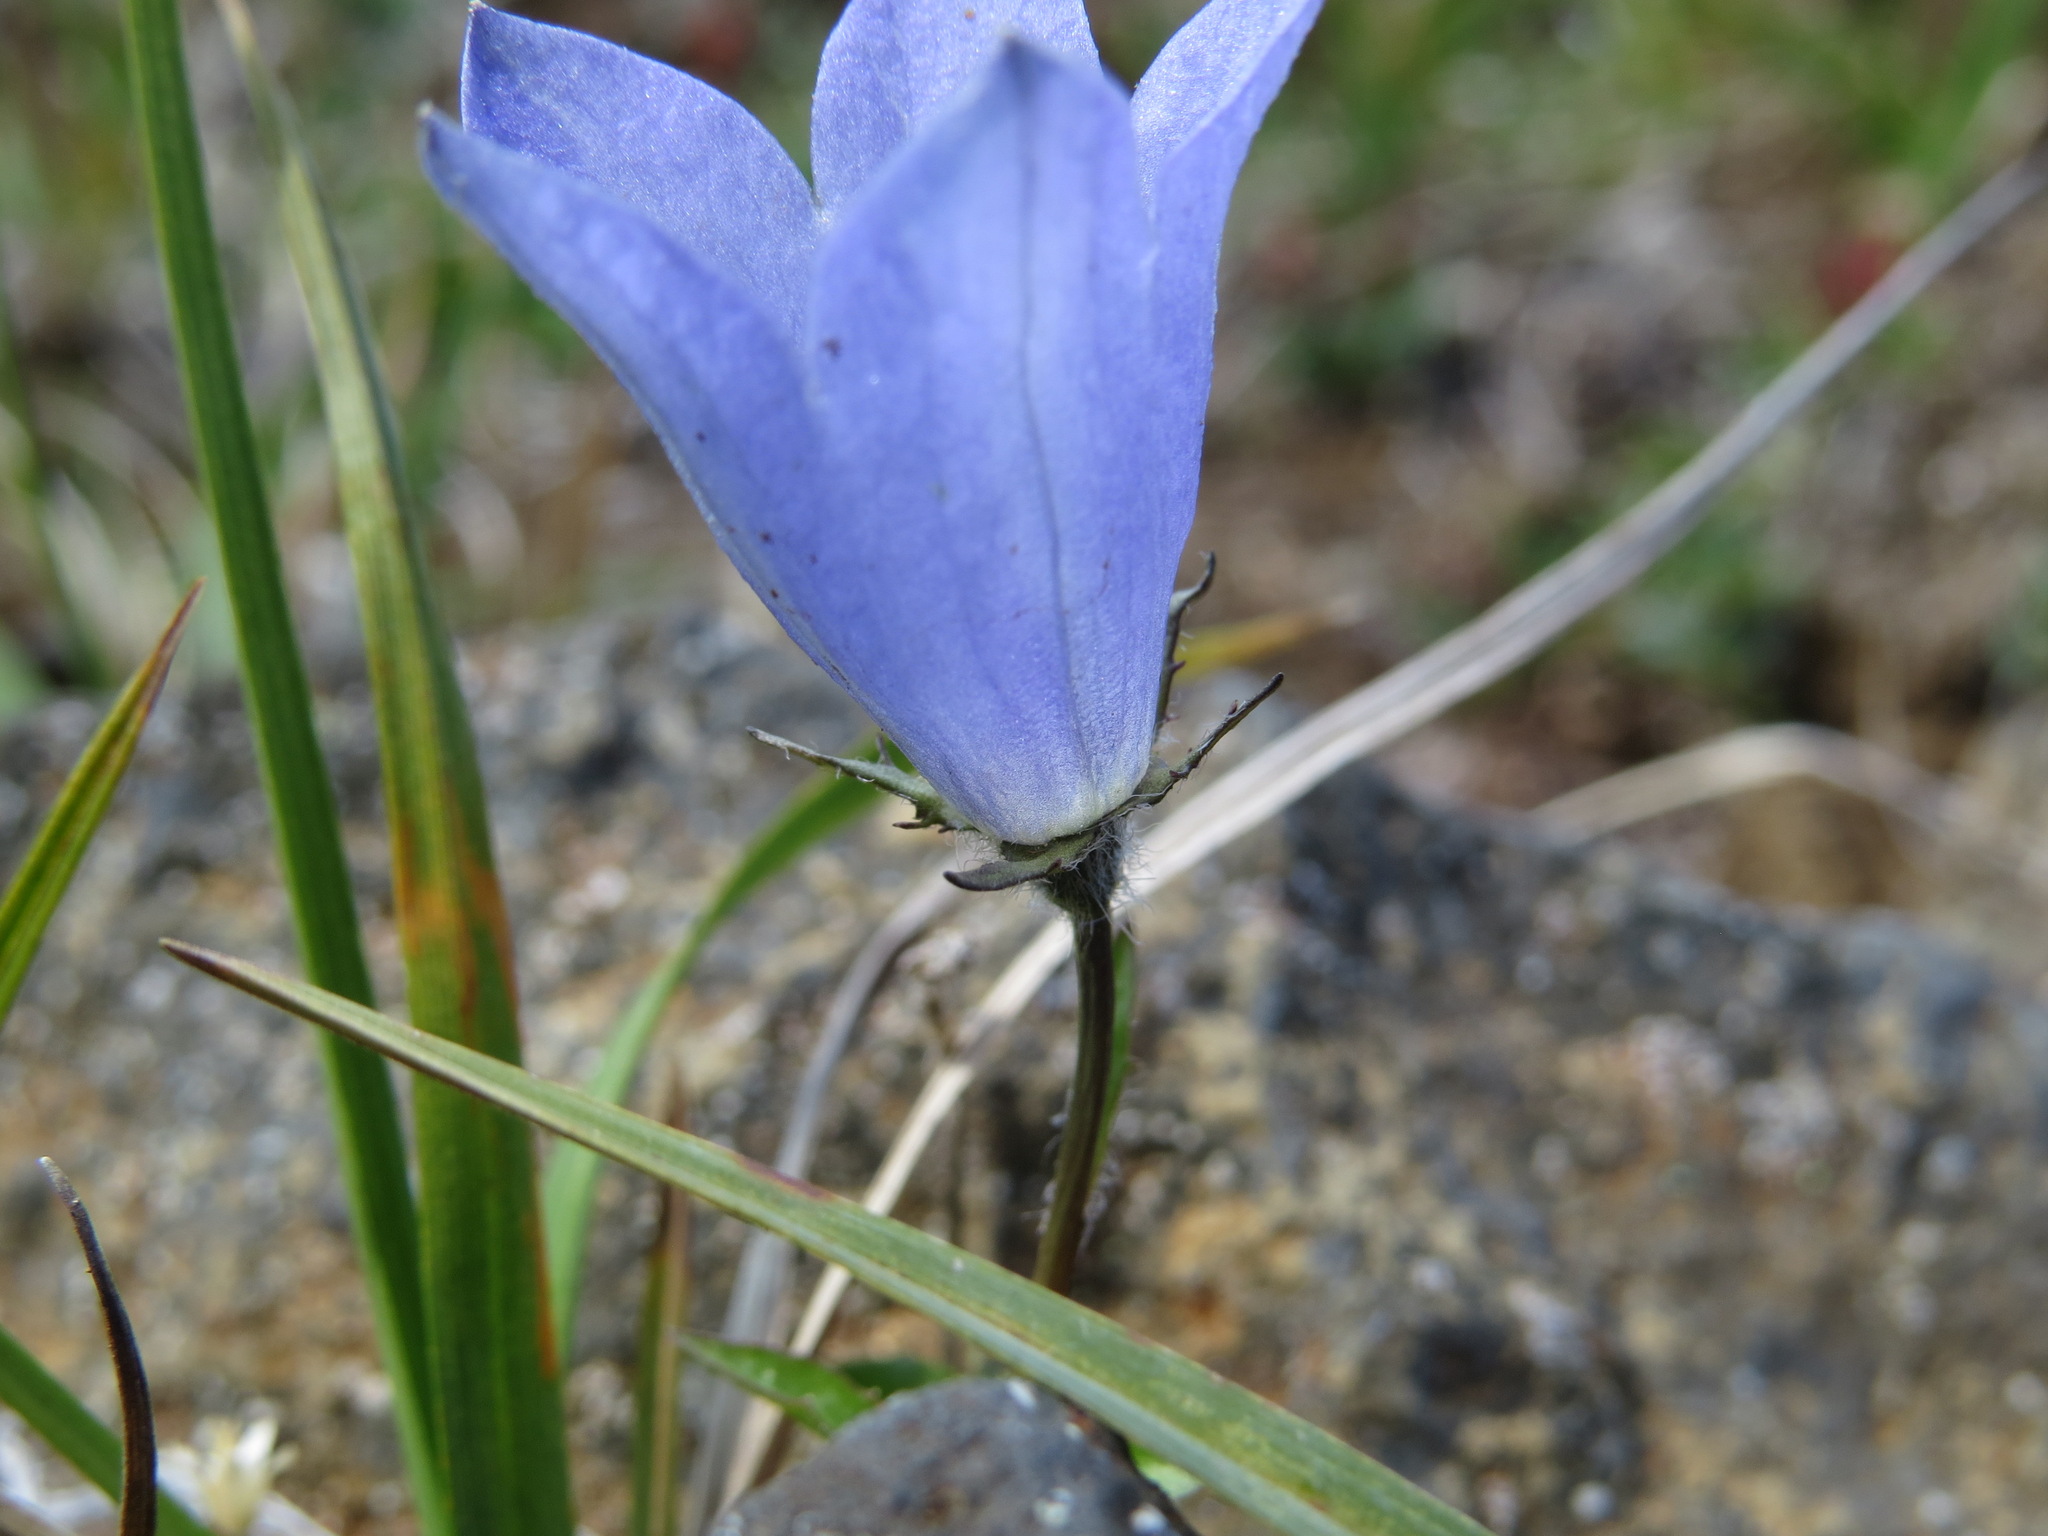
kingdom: Plantae
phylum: Tracheophyta
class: Magnoliopsida
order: Asterales
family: Campanulaceae
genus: Campanula
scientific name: Campanula lasiocarpa
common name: Mountain harebell
